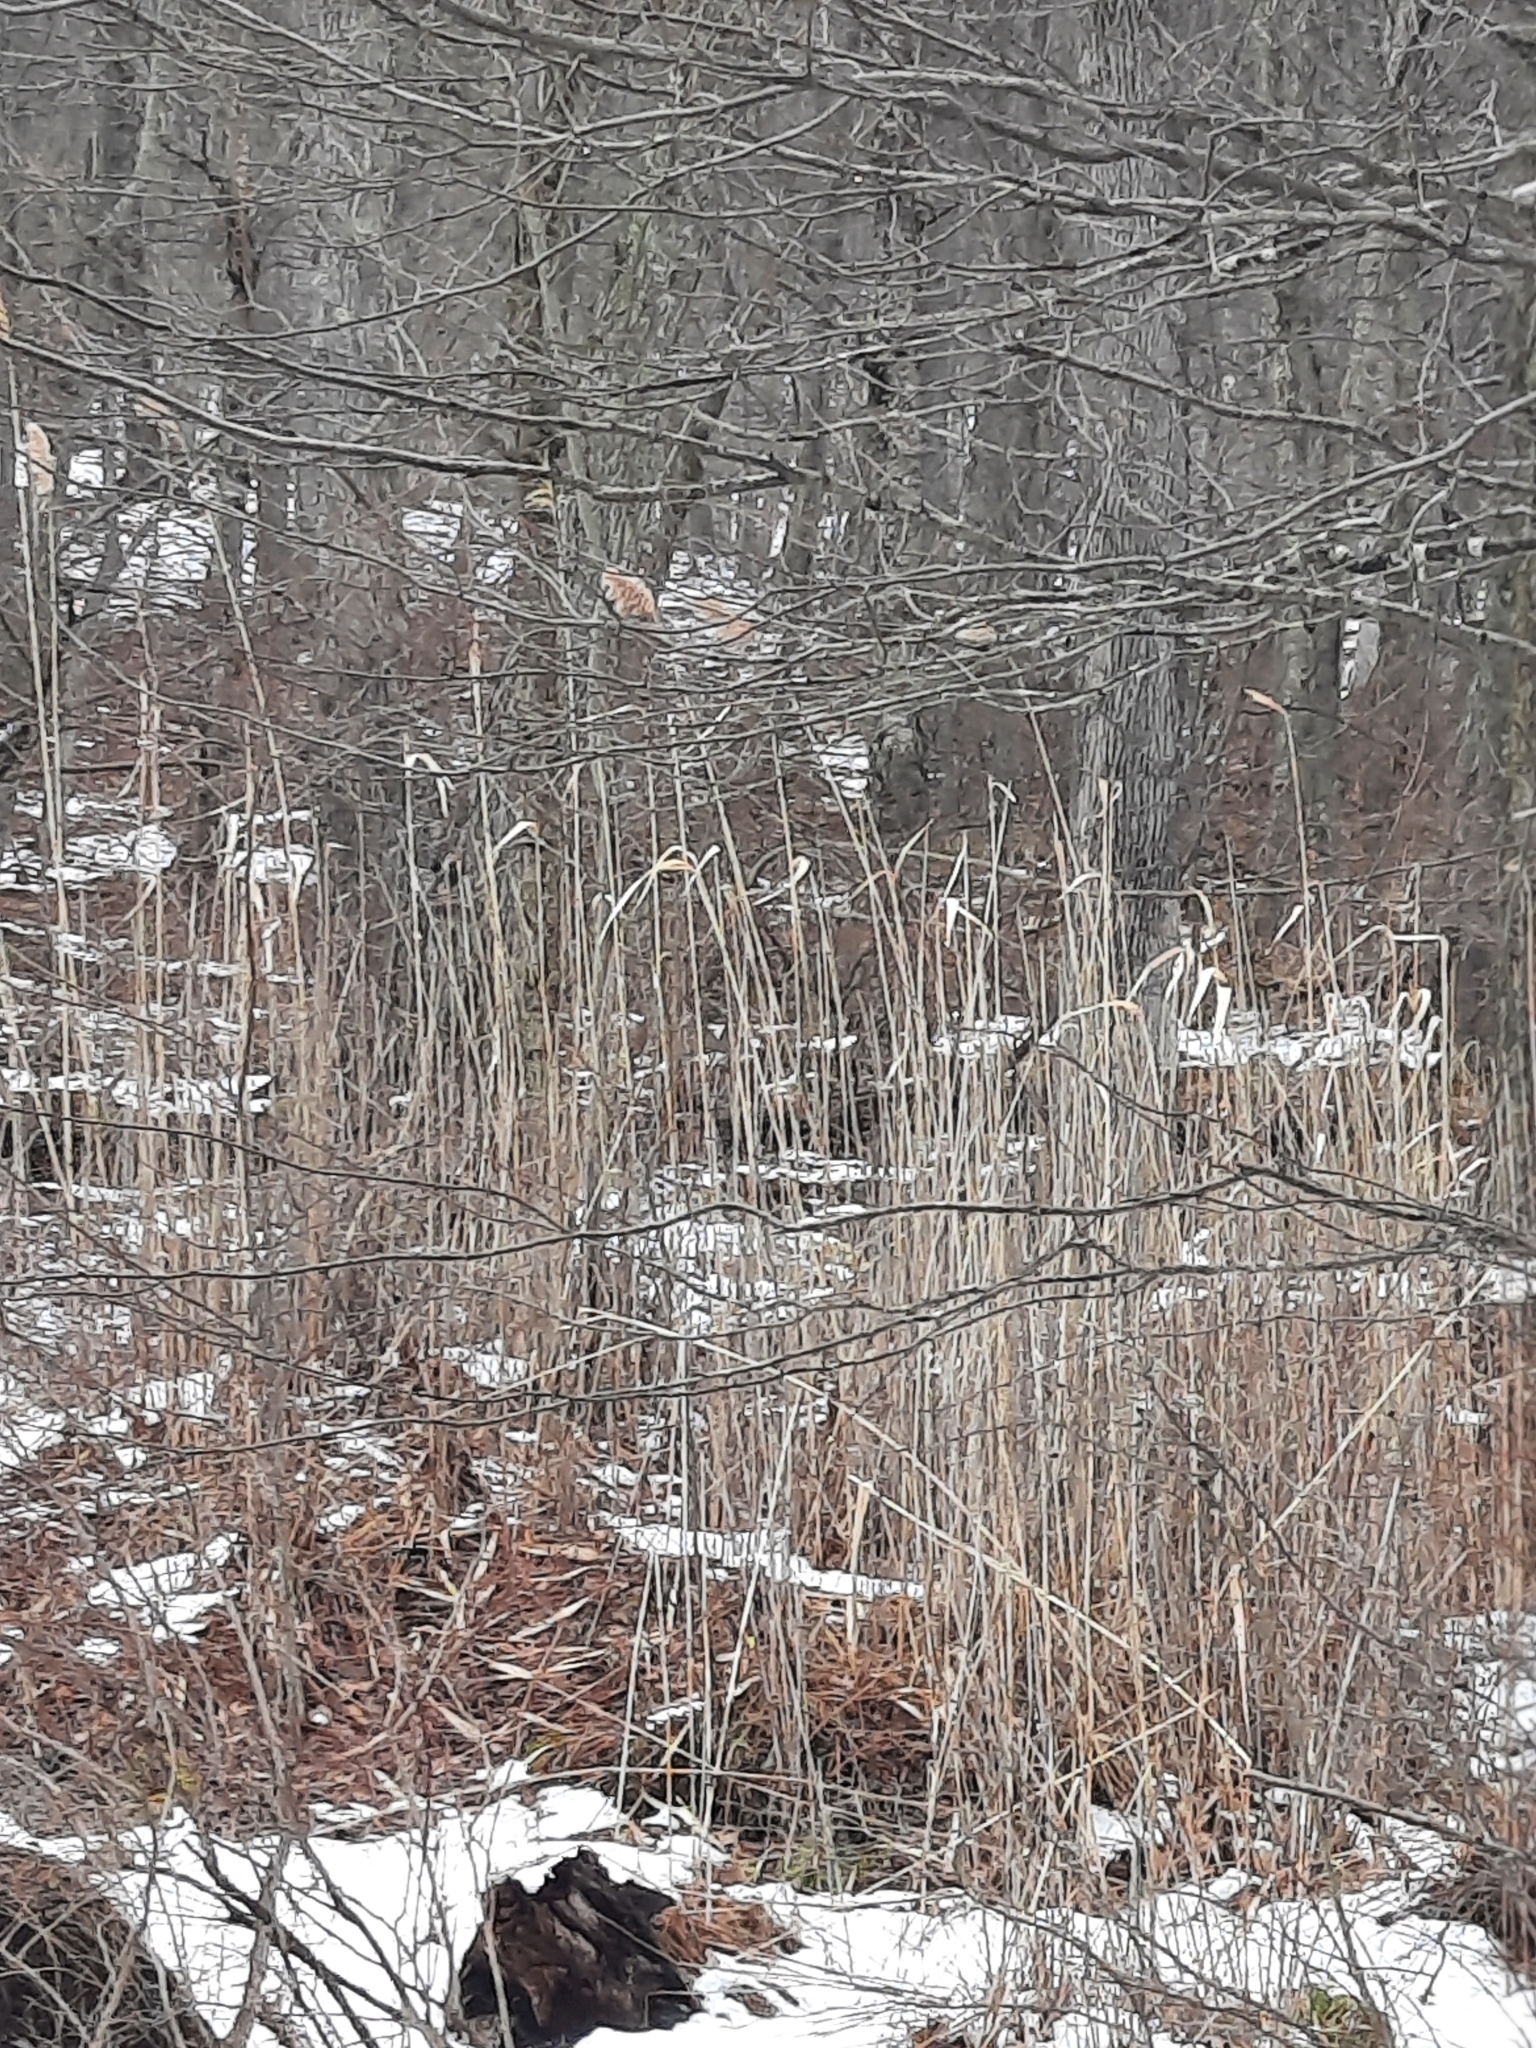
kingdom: Plantae
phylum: Tracheophyta
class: Liliopsida
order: Poales
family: Poaceae
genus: Phragmites
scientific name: Phragmites australis
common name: Common reed
